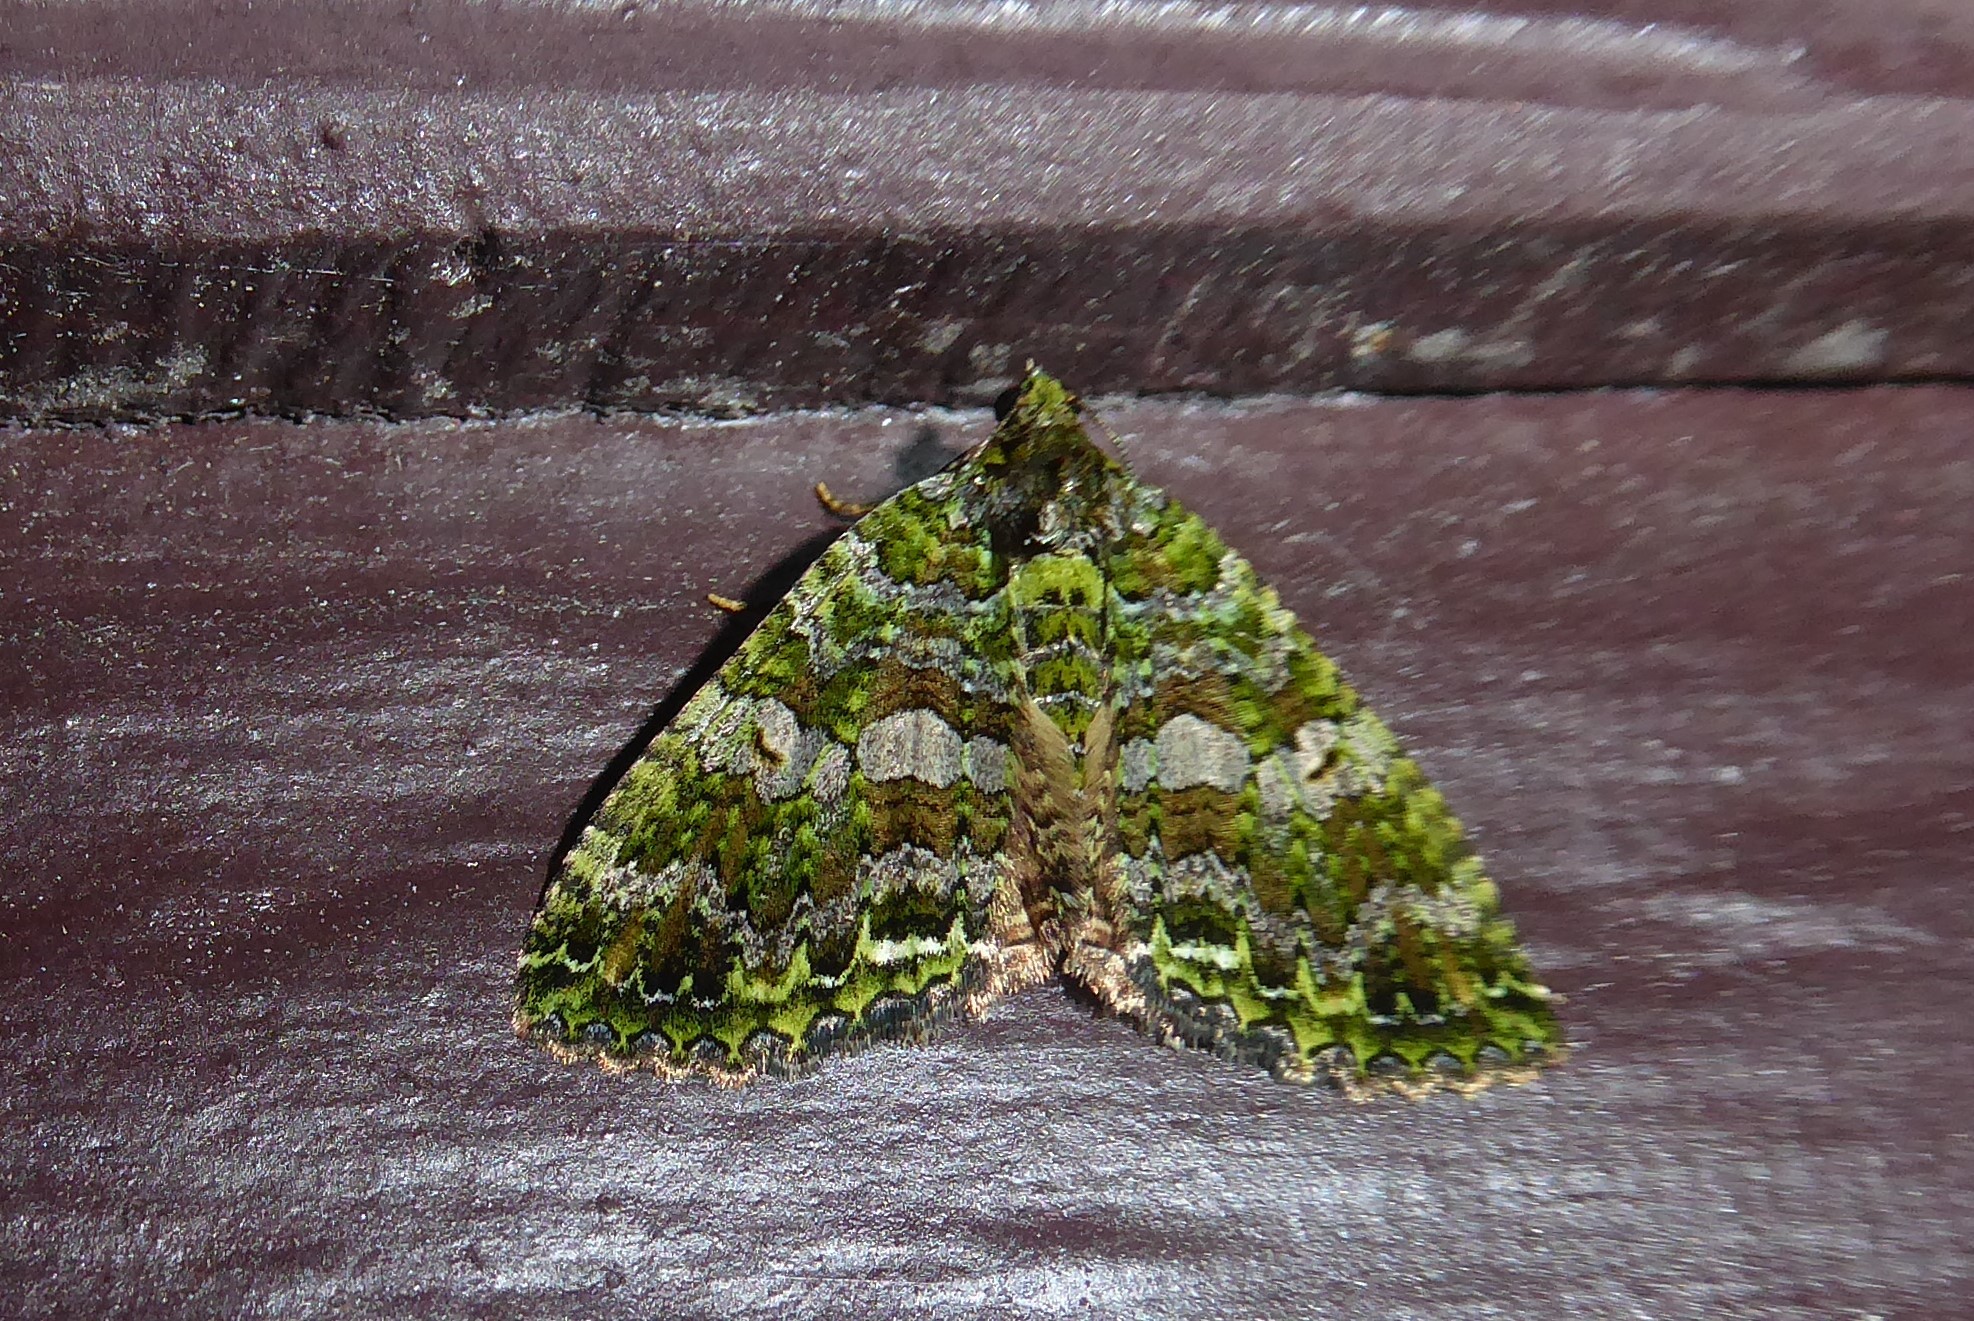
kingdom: Animalia
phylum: Arthropoda
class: Insecta
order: Lepidoptera
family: Geometridae
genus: Austrocidaria
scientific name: Austrocidaria similata
